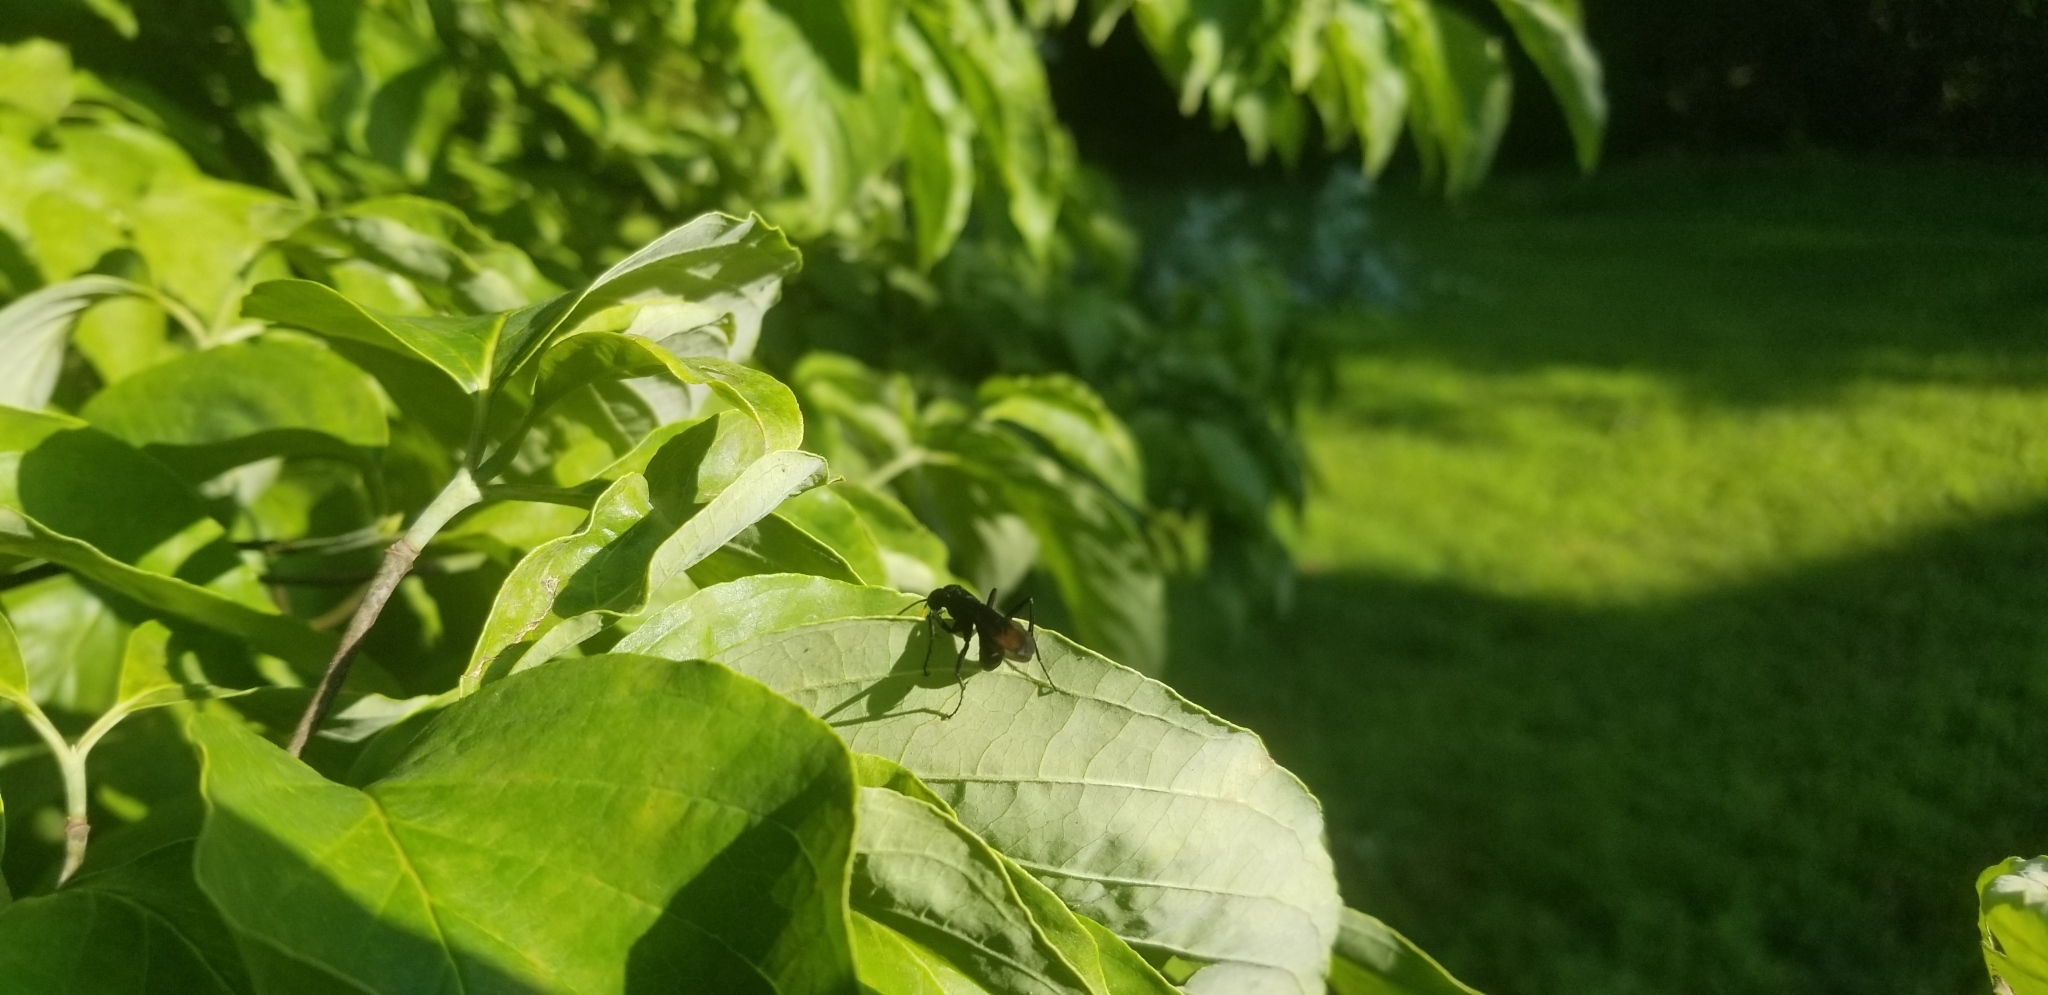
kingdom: Plantae
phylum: Tracheophyta
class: Magnoliopsida
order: Cornales
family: Cornaceae
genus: Cornus
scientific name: Cornus florida
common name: Flowering dogwood
